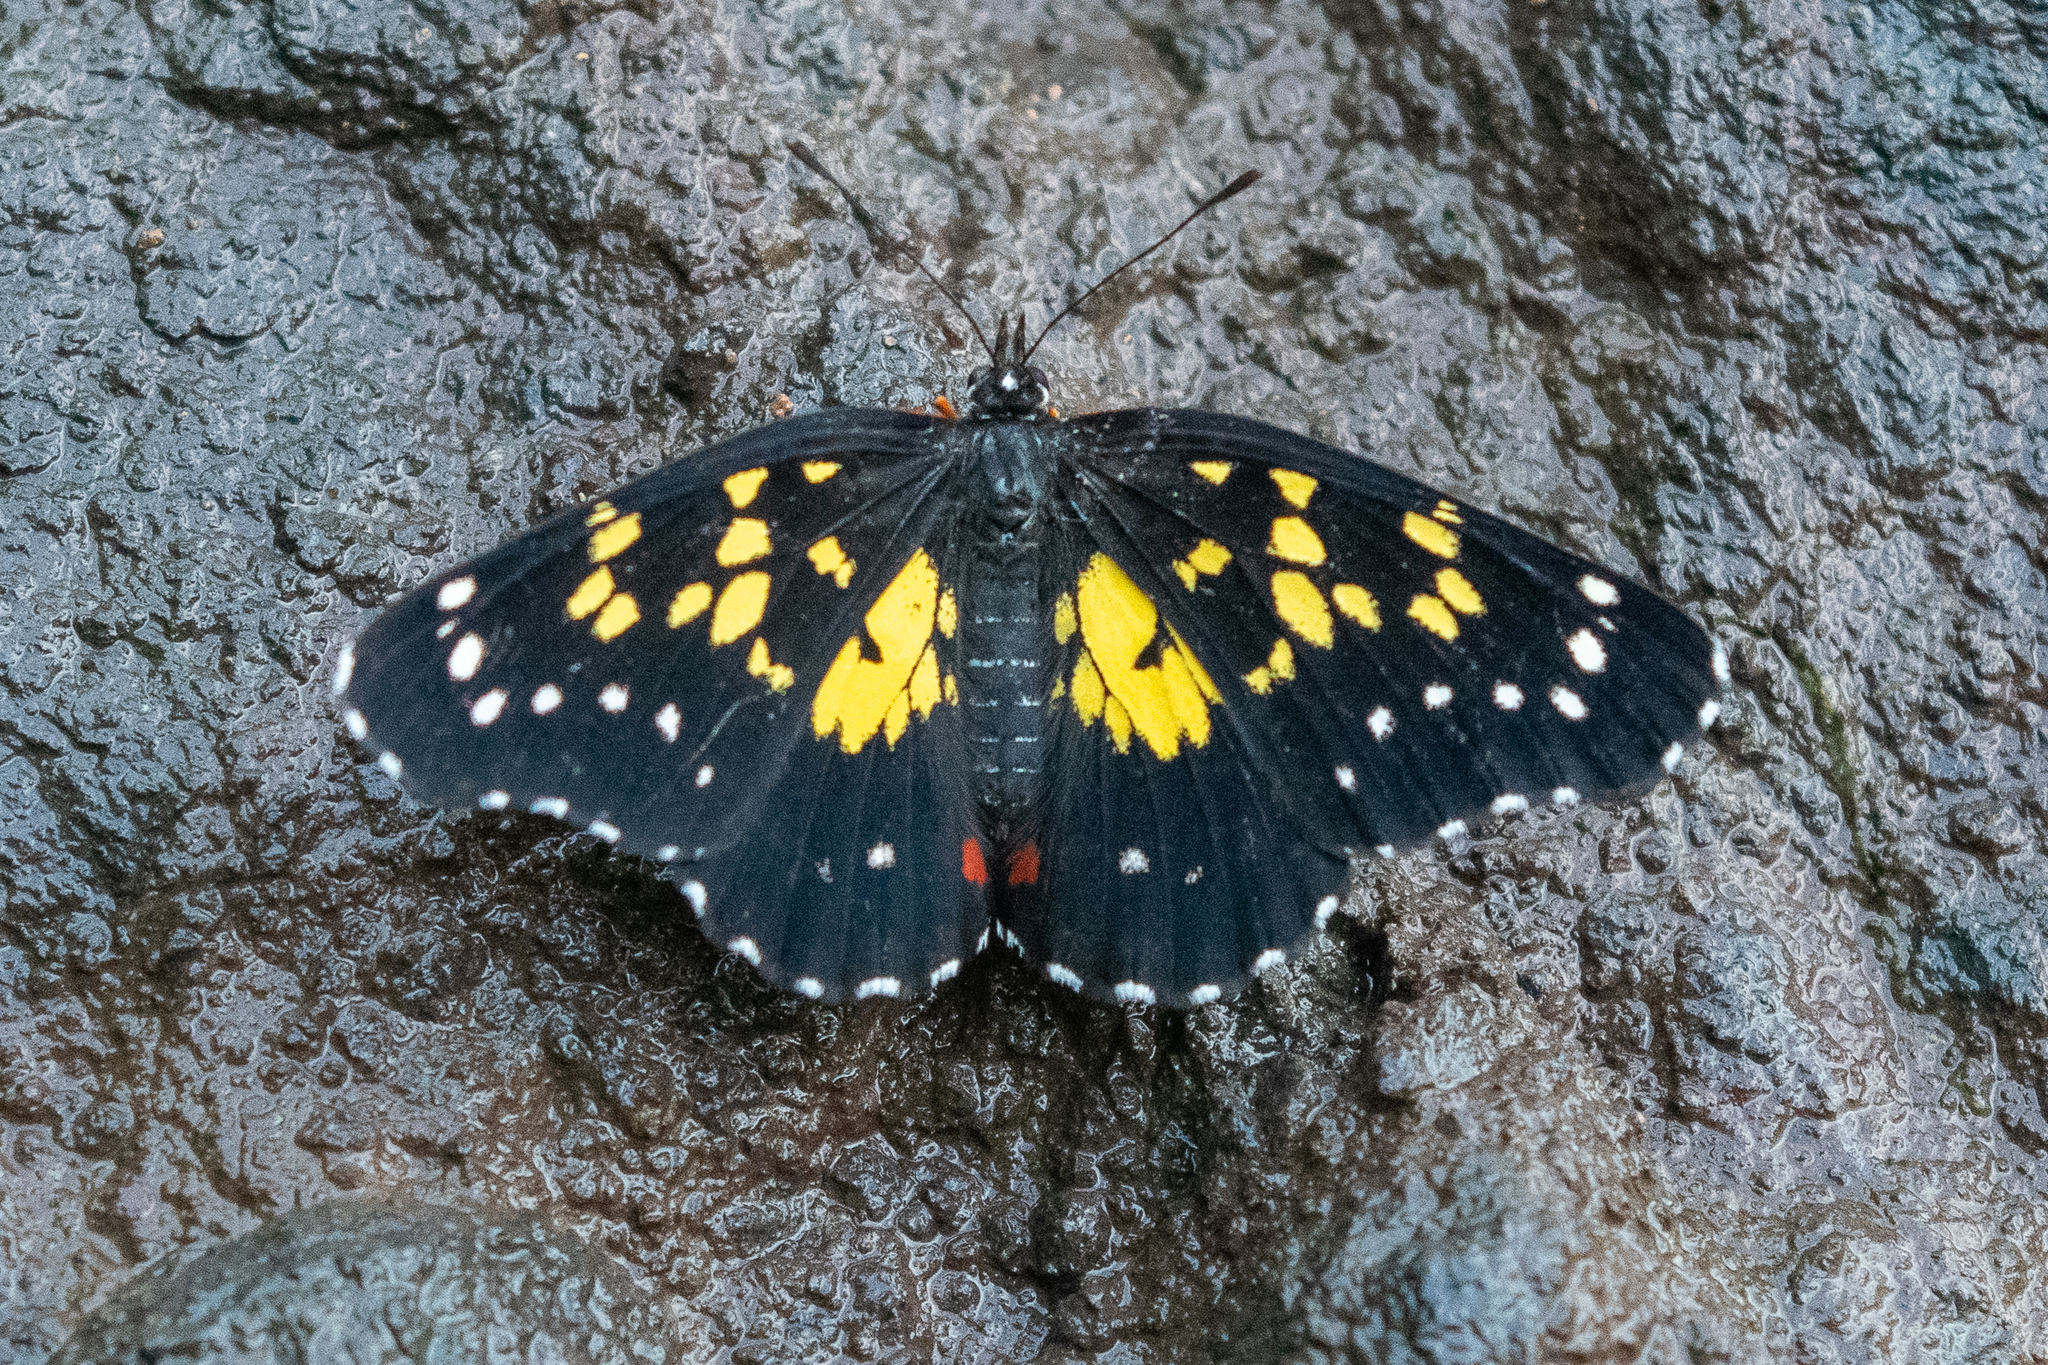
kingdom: Animalia
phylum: Arthropoda
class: Insecta
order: Lepidoptera
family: Nymphalidae
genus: Chlosyne
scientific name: Chlosyne poecile
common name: Poecile checkerspot
